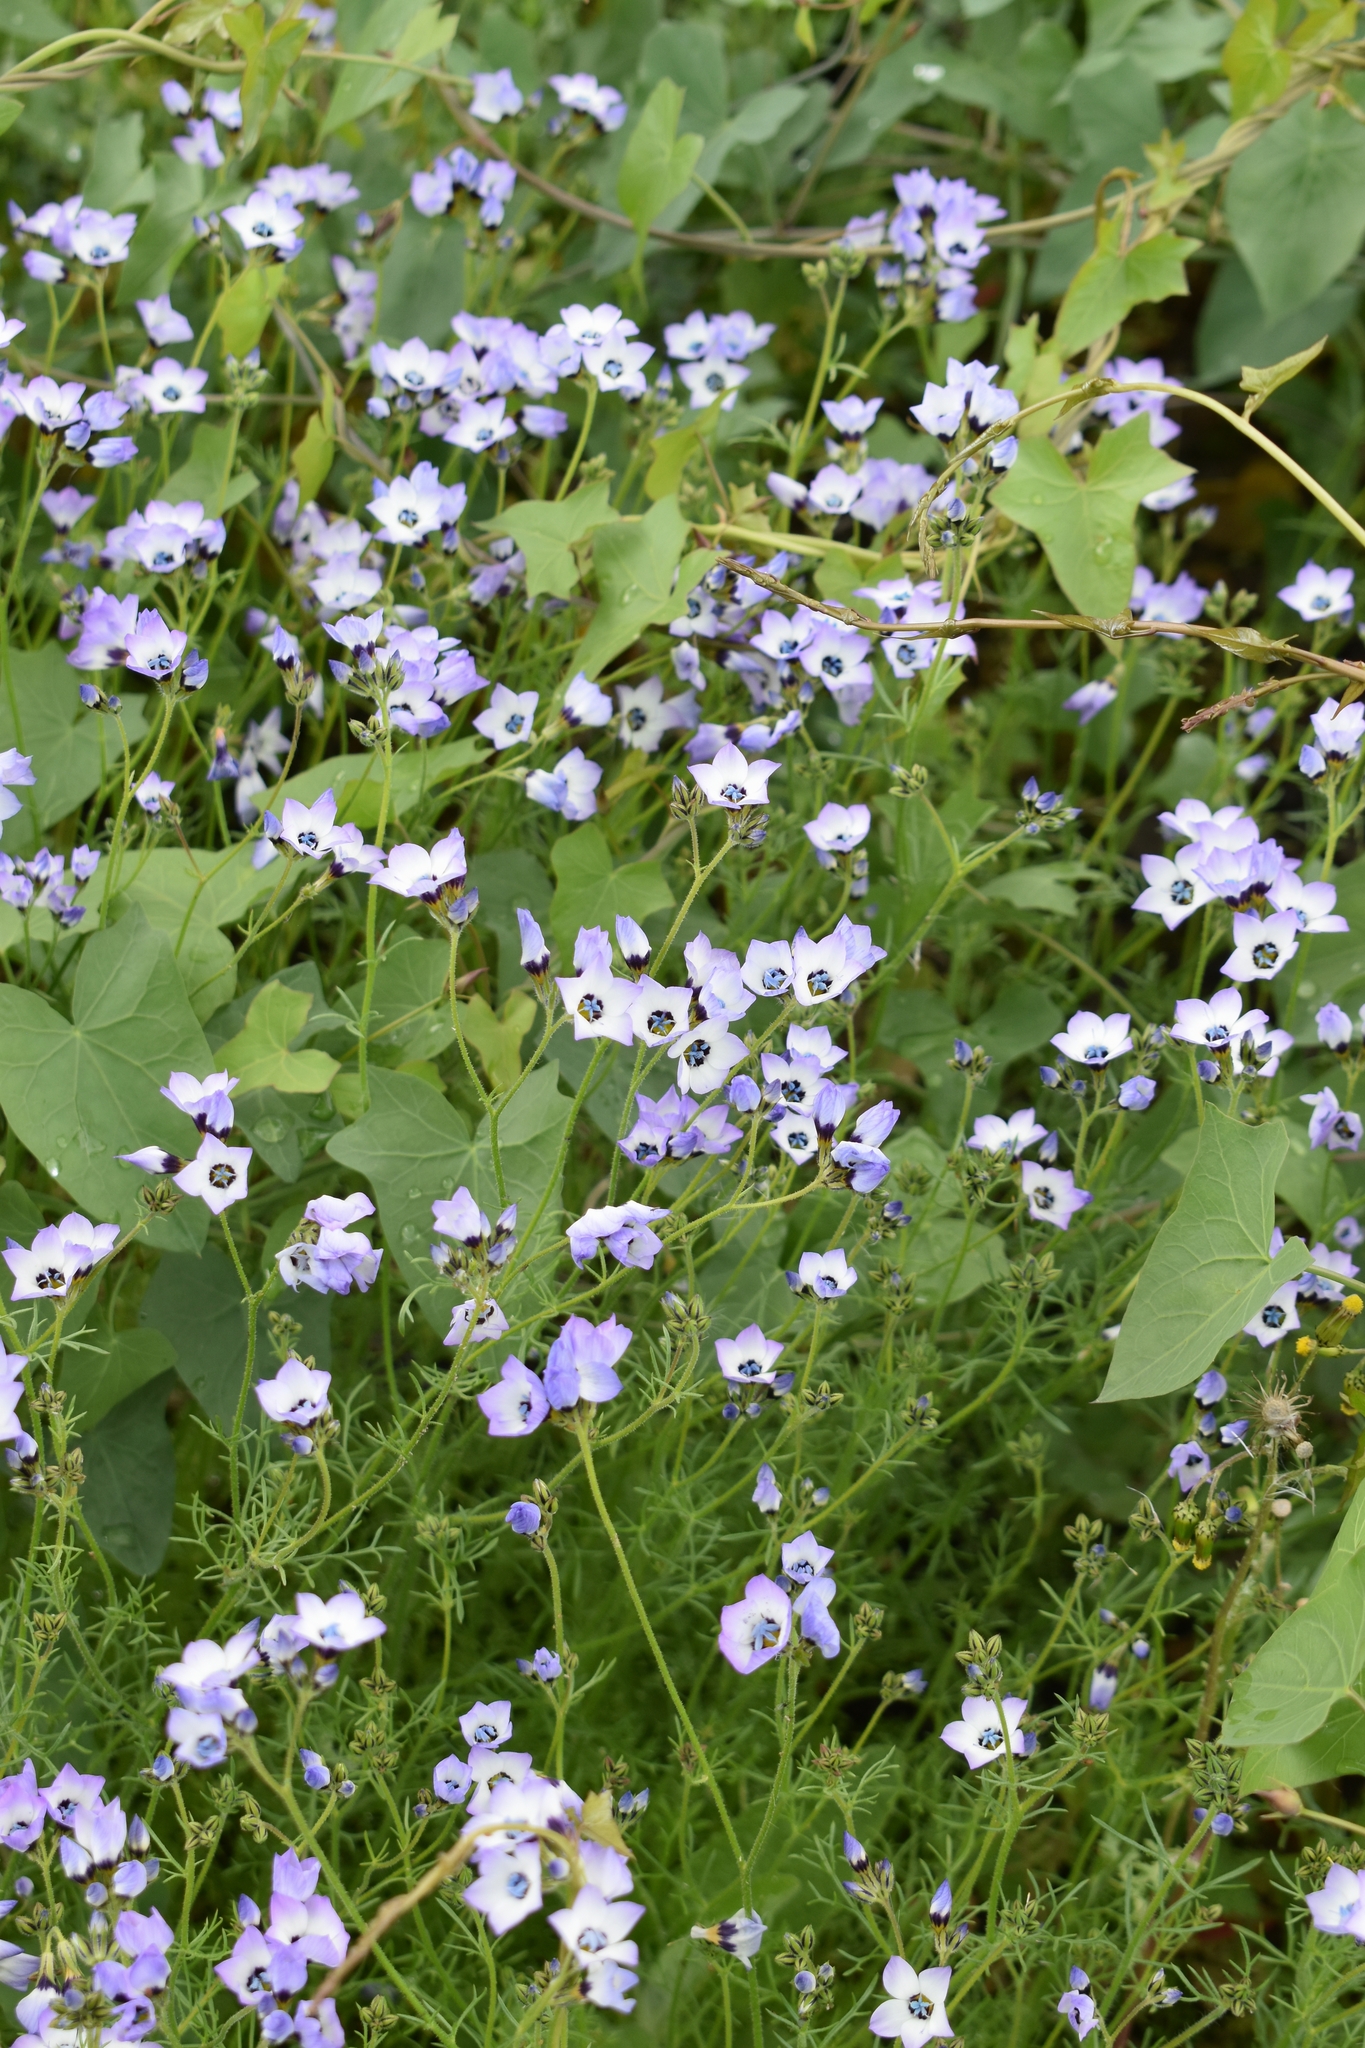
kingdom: Plantae
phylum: Tracheophyta
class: Magnoliopsida
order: Ericales
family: Polemoniaceae
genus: Gilia
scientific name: Gilia tricolor
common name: Bird's-eyes
